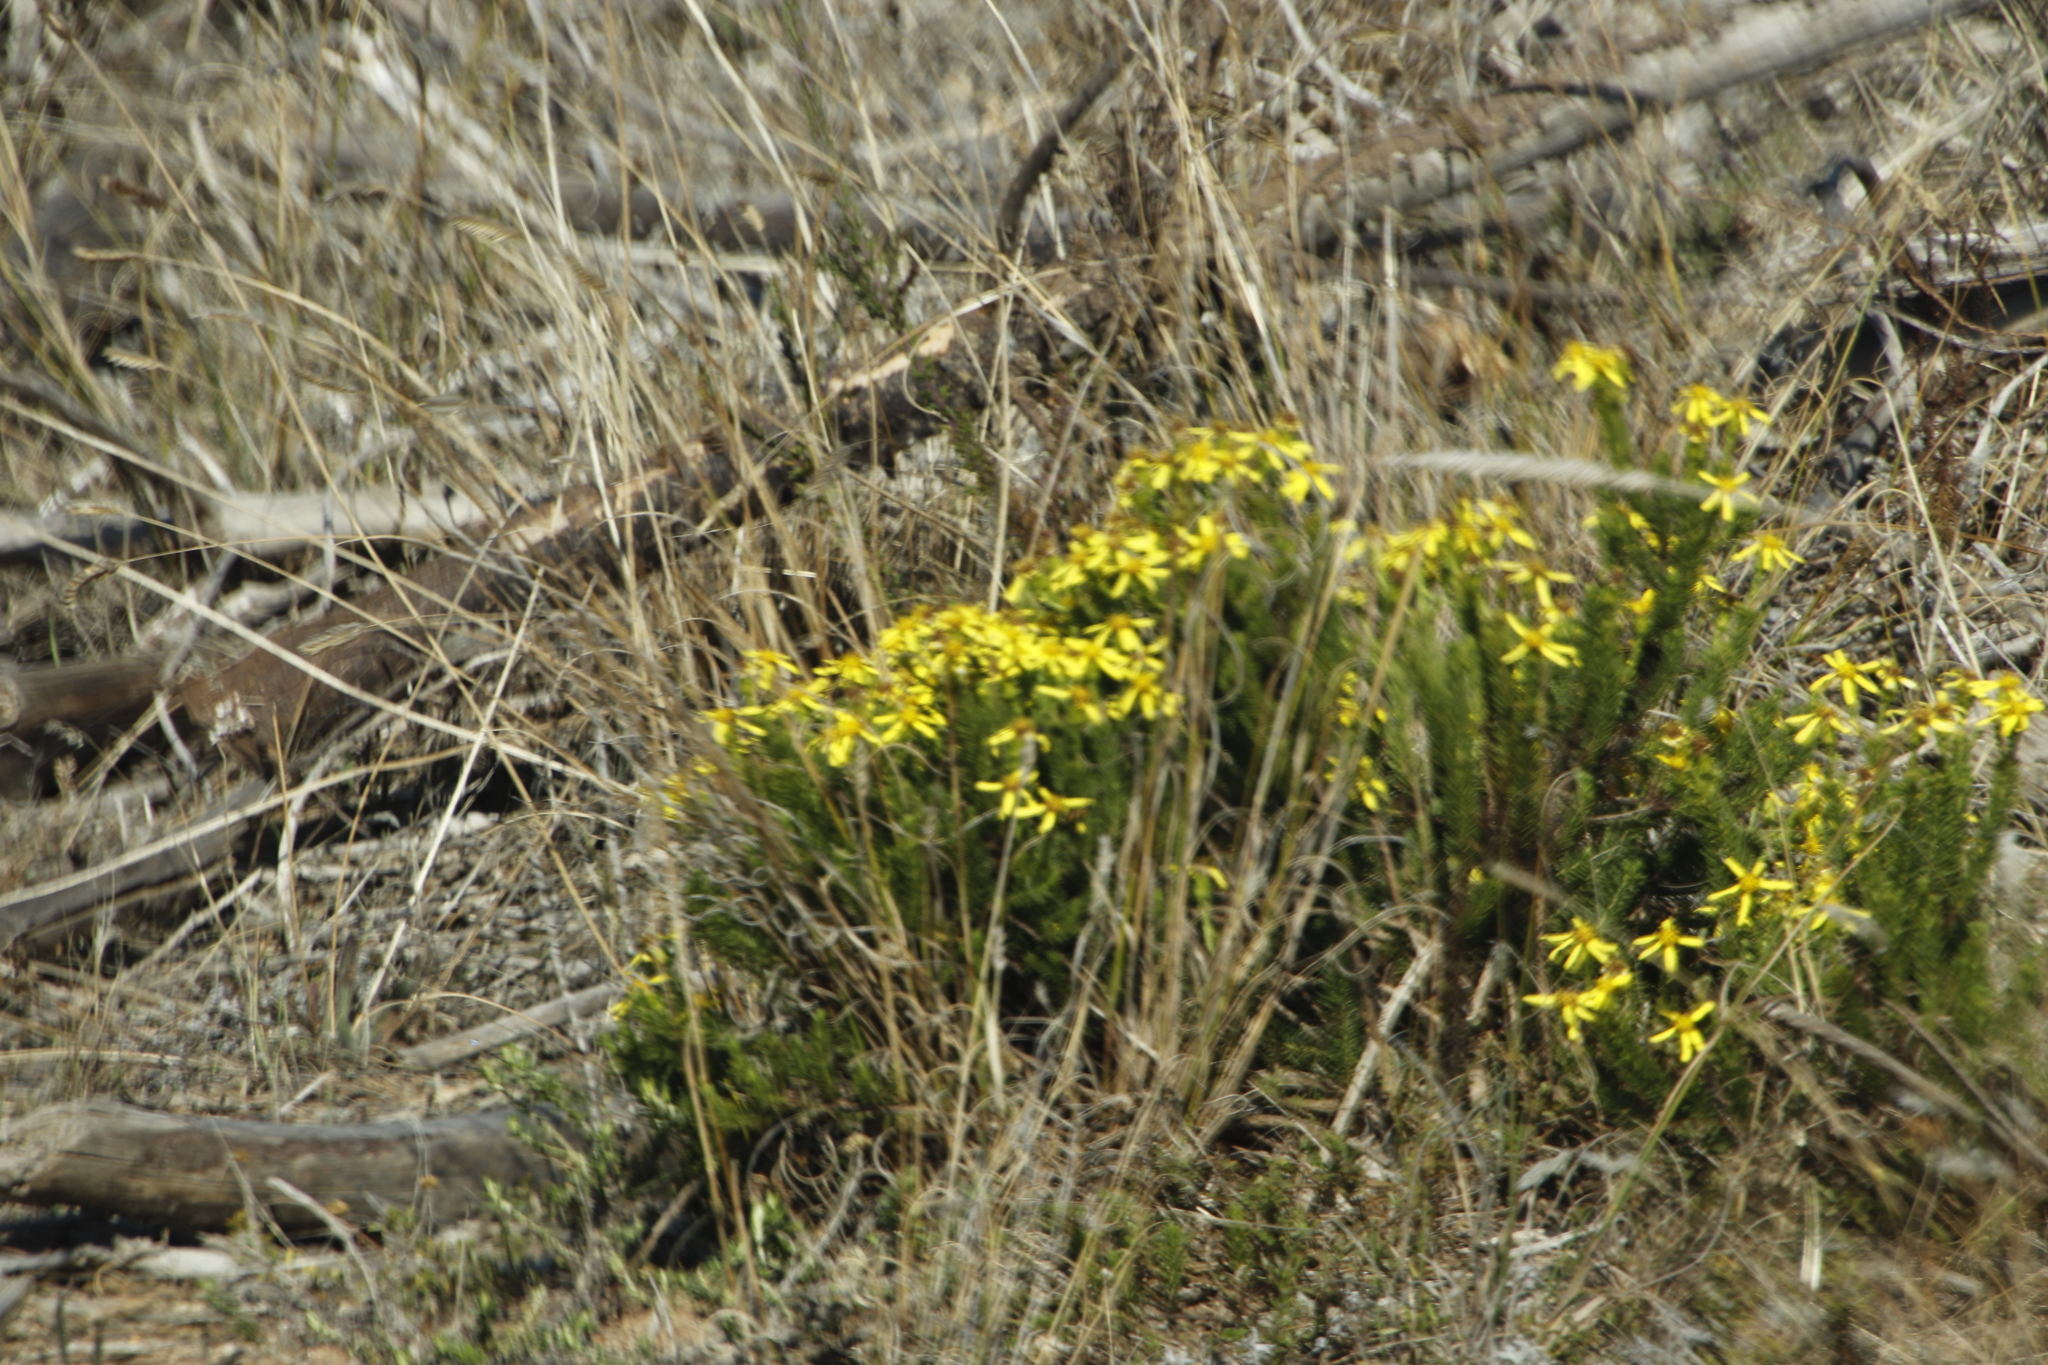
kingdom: Plantae
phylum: Tracheophyta
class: Magnoliopsida
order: Asterales
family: Asteraceae
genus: Senecio
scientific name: Senecio burchellii
